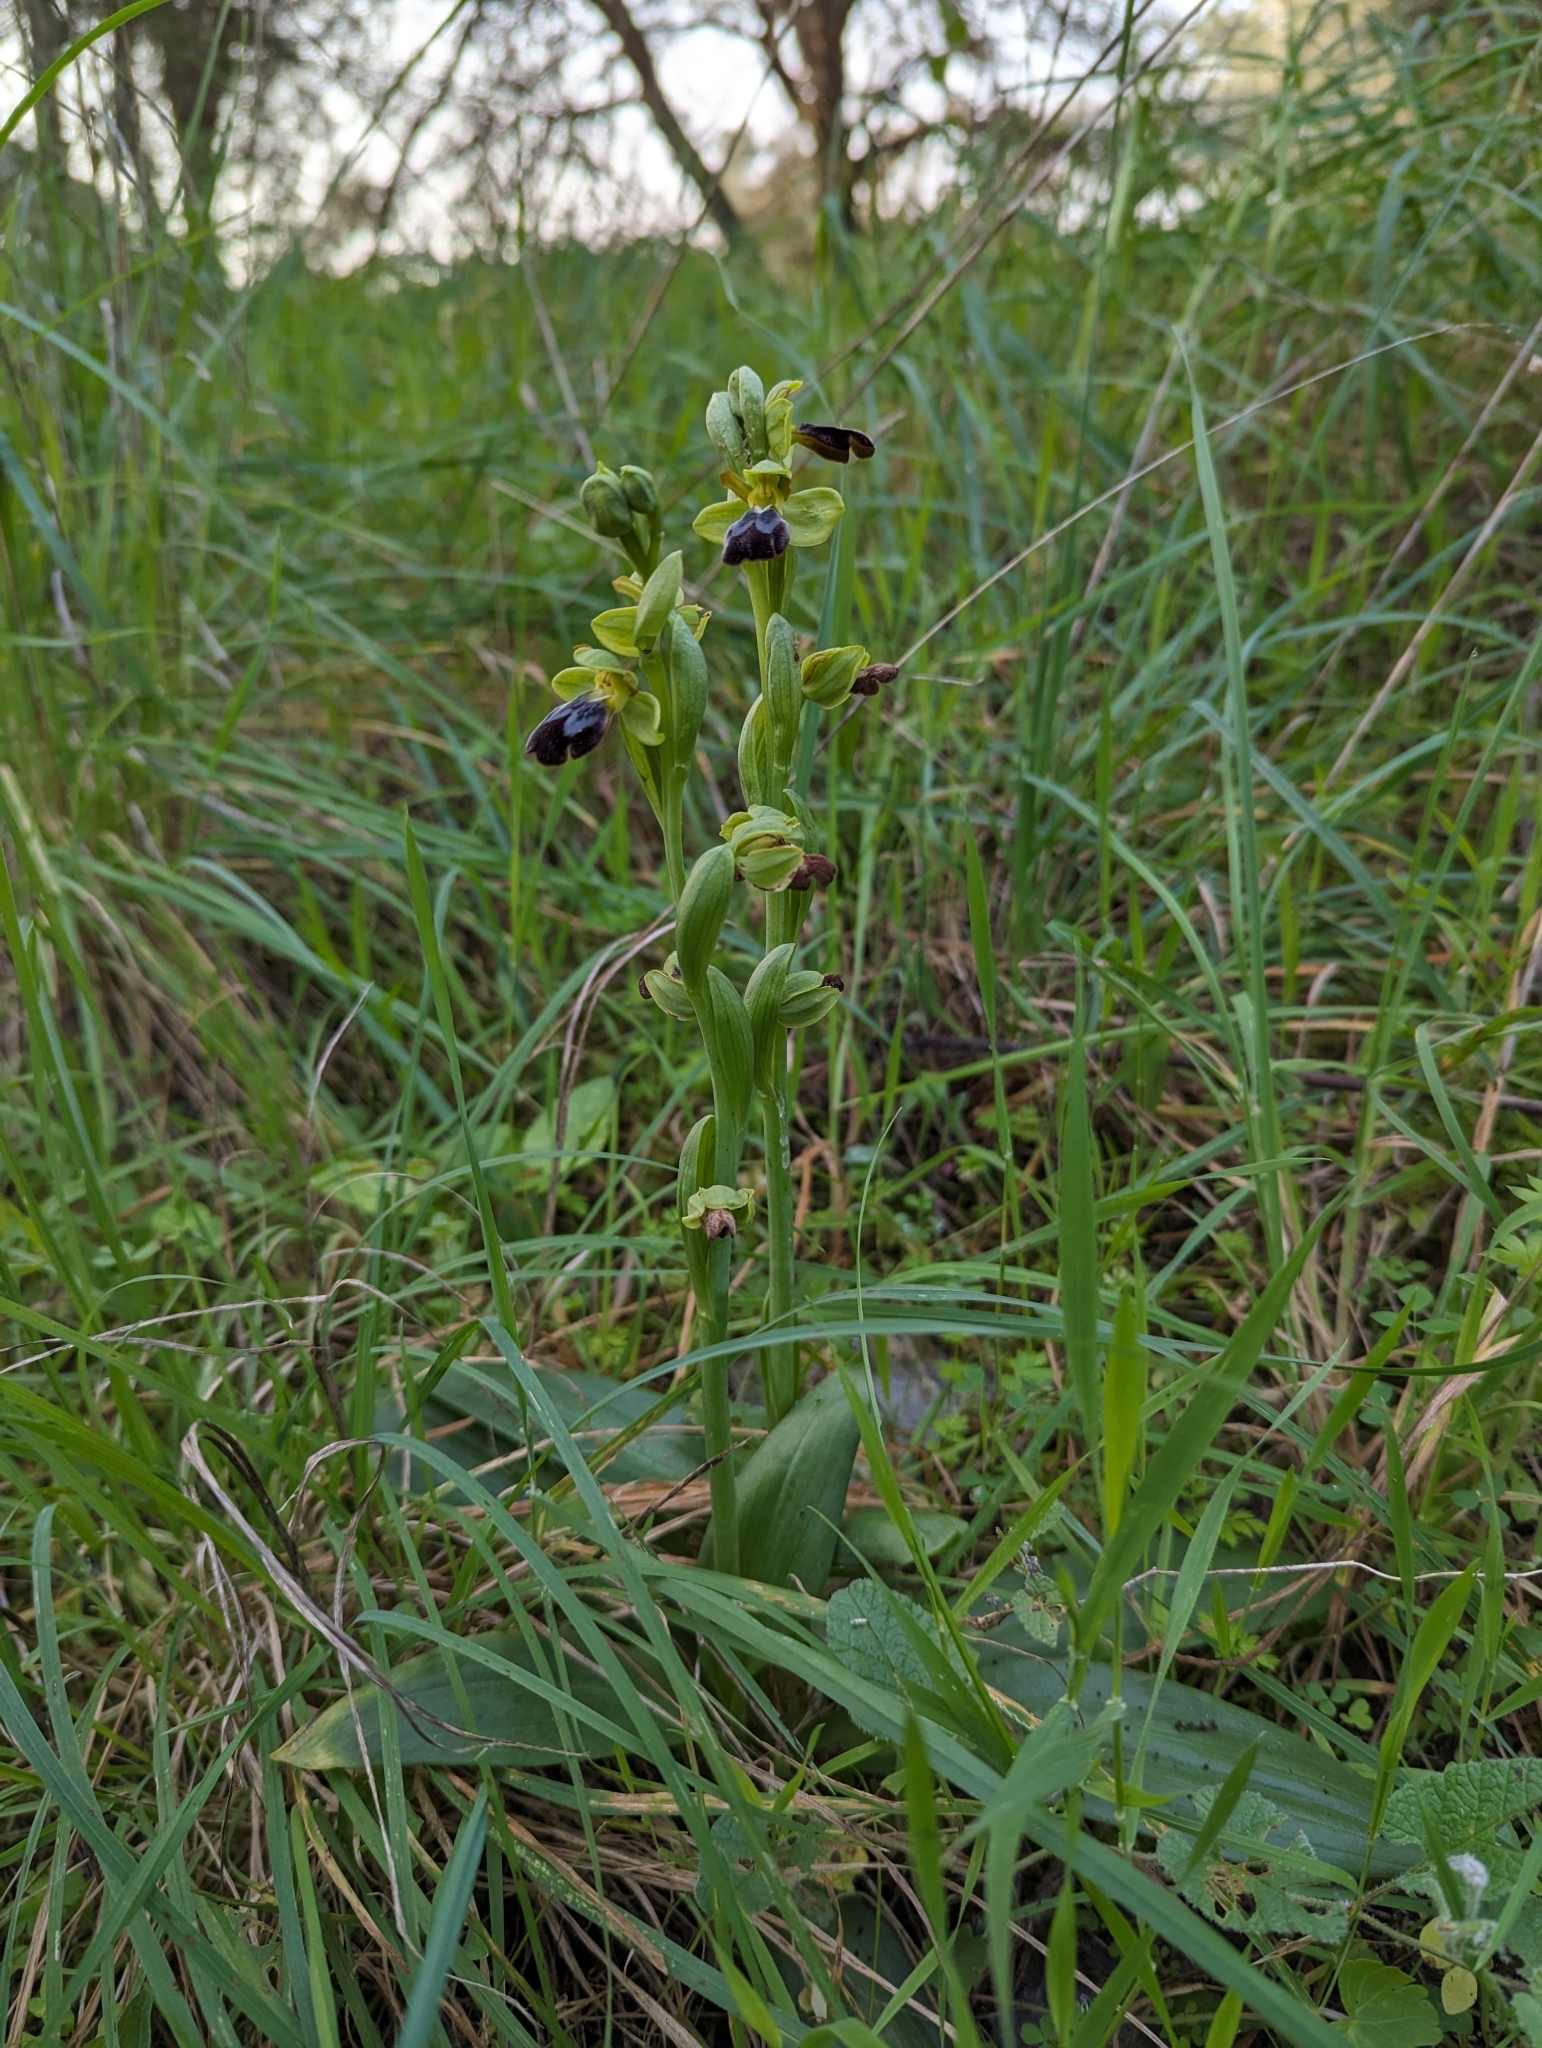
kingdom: Plantae
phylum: Tracheophyta
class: Liliopsida
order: Asparagales
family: Orchidaceae
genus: Ophrys
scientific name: Ophrys fusca
